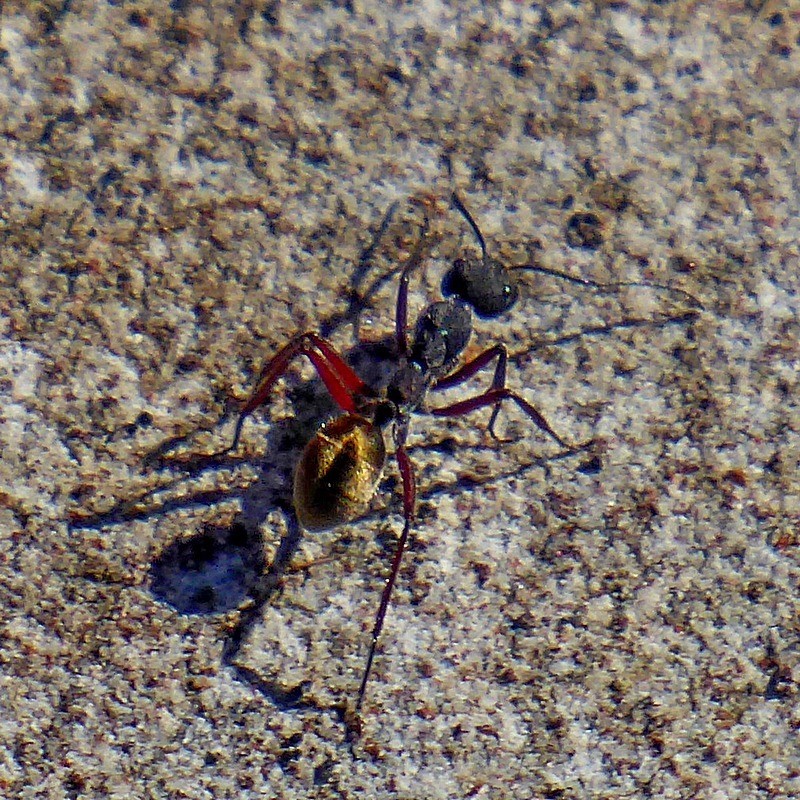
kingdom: Animalia
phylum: Arthropoda
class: Insecta
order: Hymenoptera
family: Formicidae
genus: Camponotus
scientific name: Camponotus suffusus
